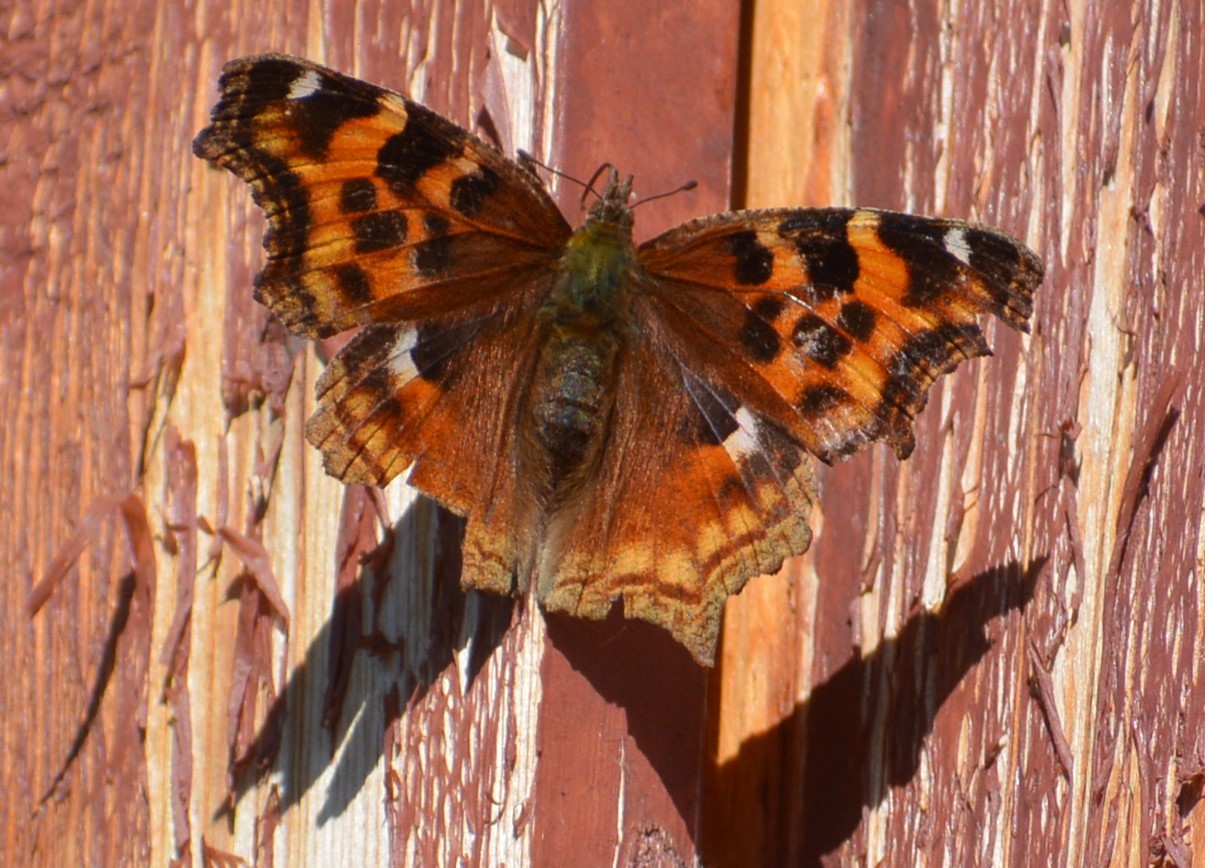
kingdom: Animalia
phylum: Arthropoda
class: Insecta
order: Lepidoptera
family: Nymphalidae
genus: Polygonia
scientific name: Polygonia vaualbum
